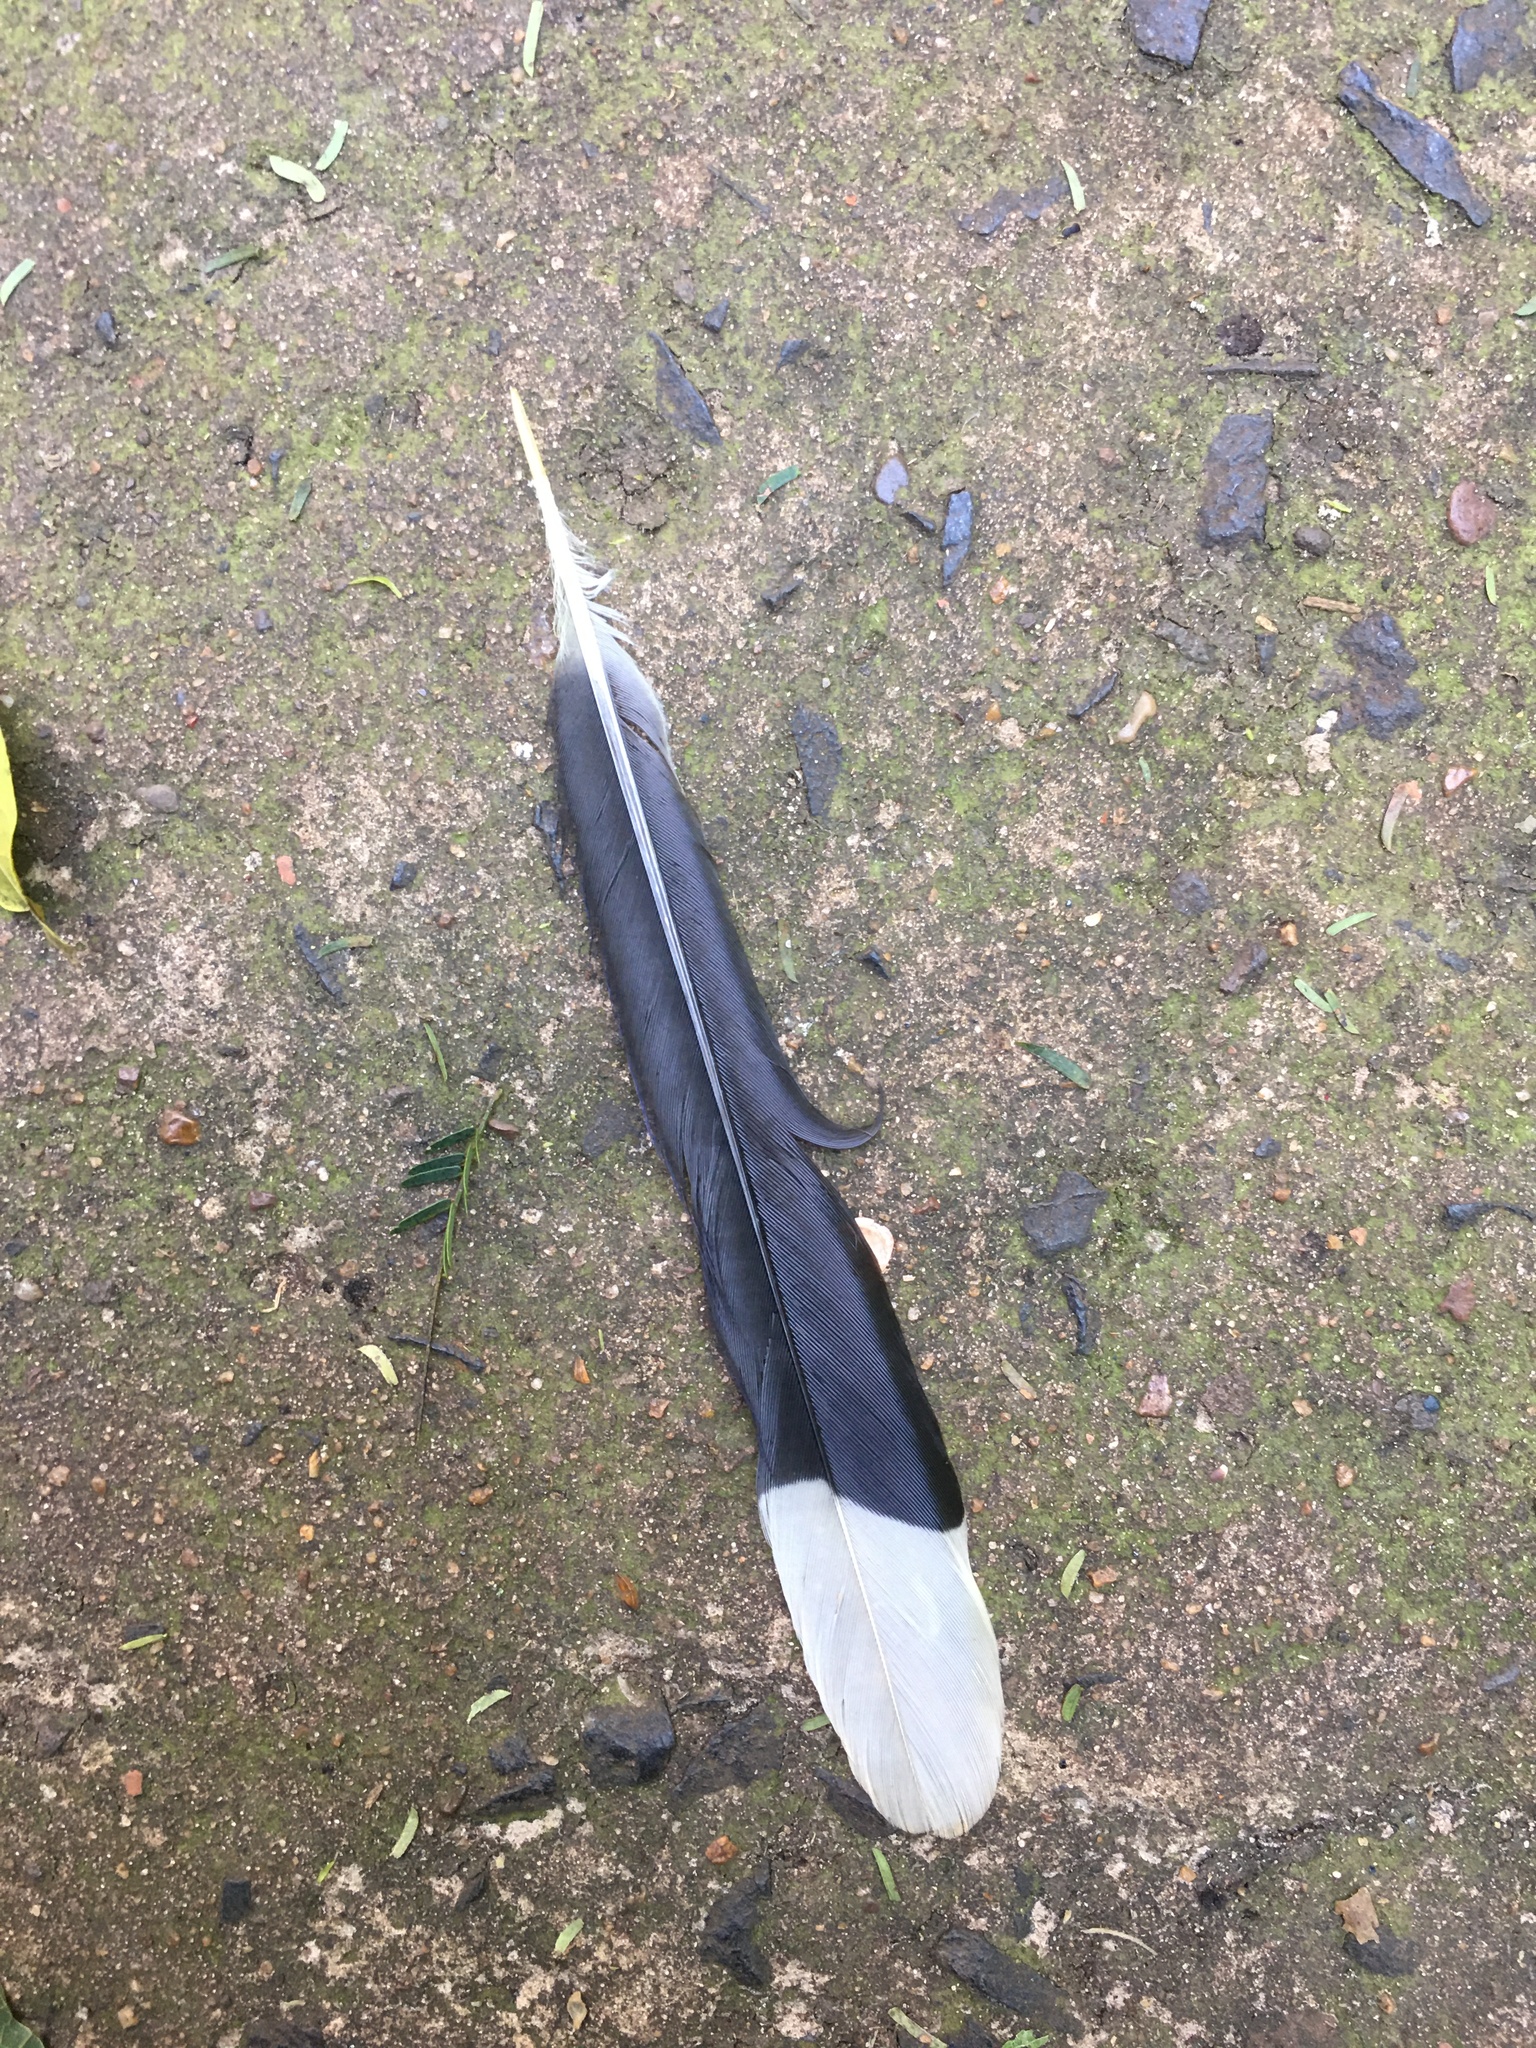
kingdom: Animalia
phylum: Chordata
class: Aves
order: Passeriformes
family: Corvidae
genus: Cyanocorax
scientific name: Cyanocorax chrysops
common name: Plush-crested jay
